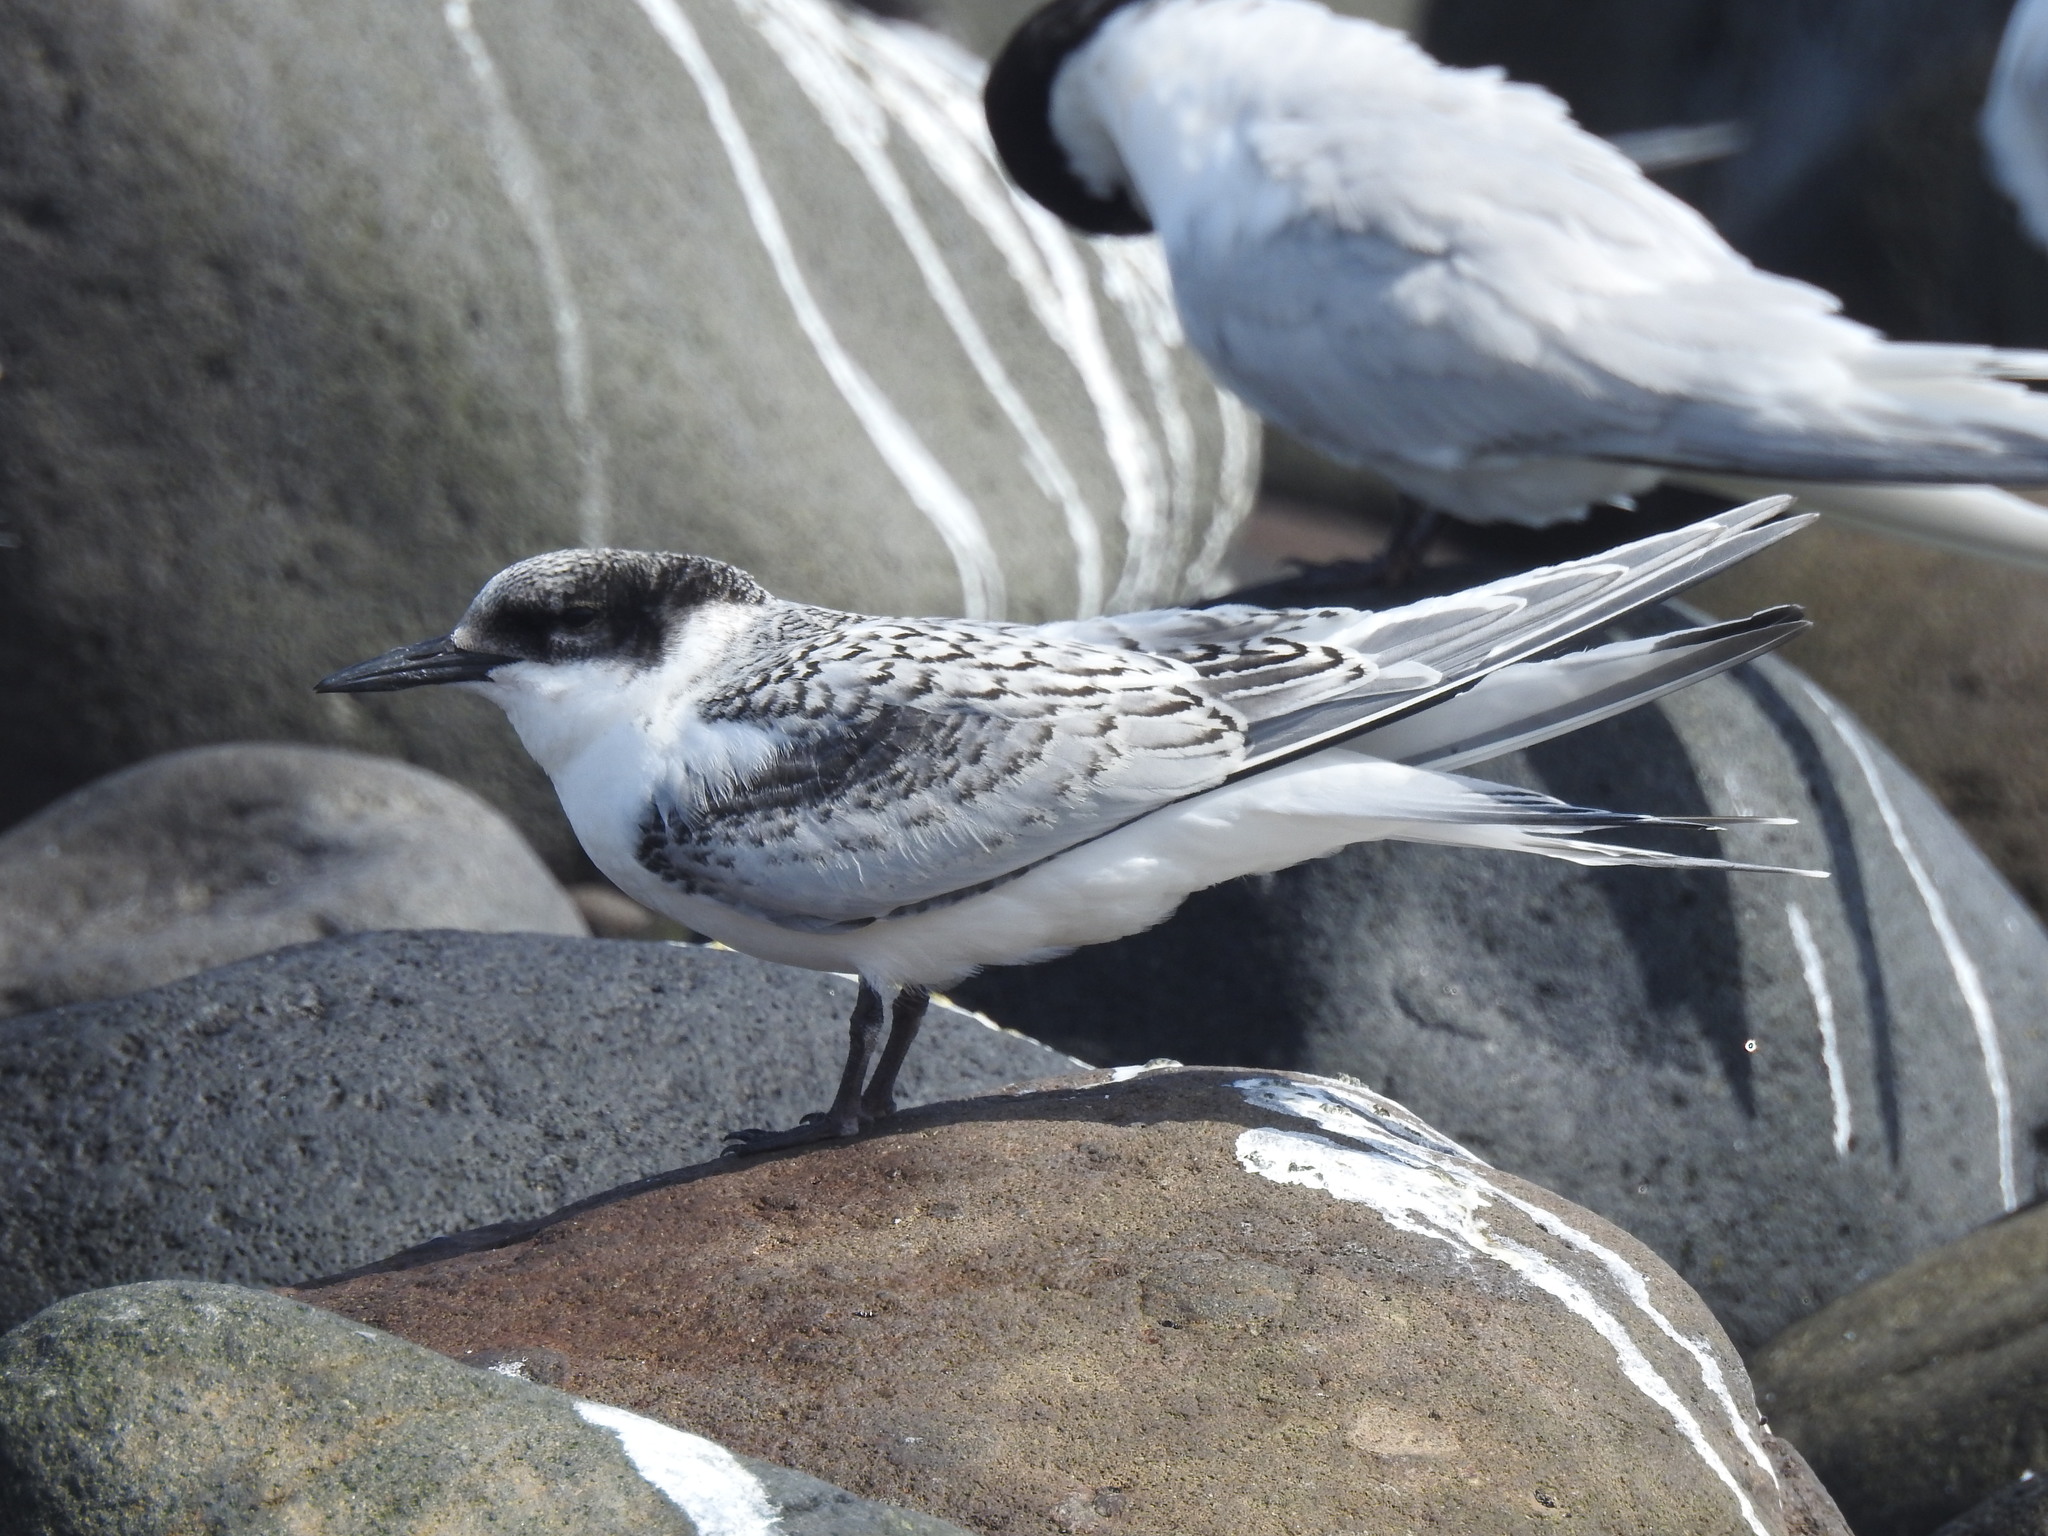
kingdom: Animalia
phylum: Chordata
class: Aves
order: Charadriiformes
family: Laridae
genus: Sterna
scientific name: Sterna striata
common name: White-fronted tern
